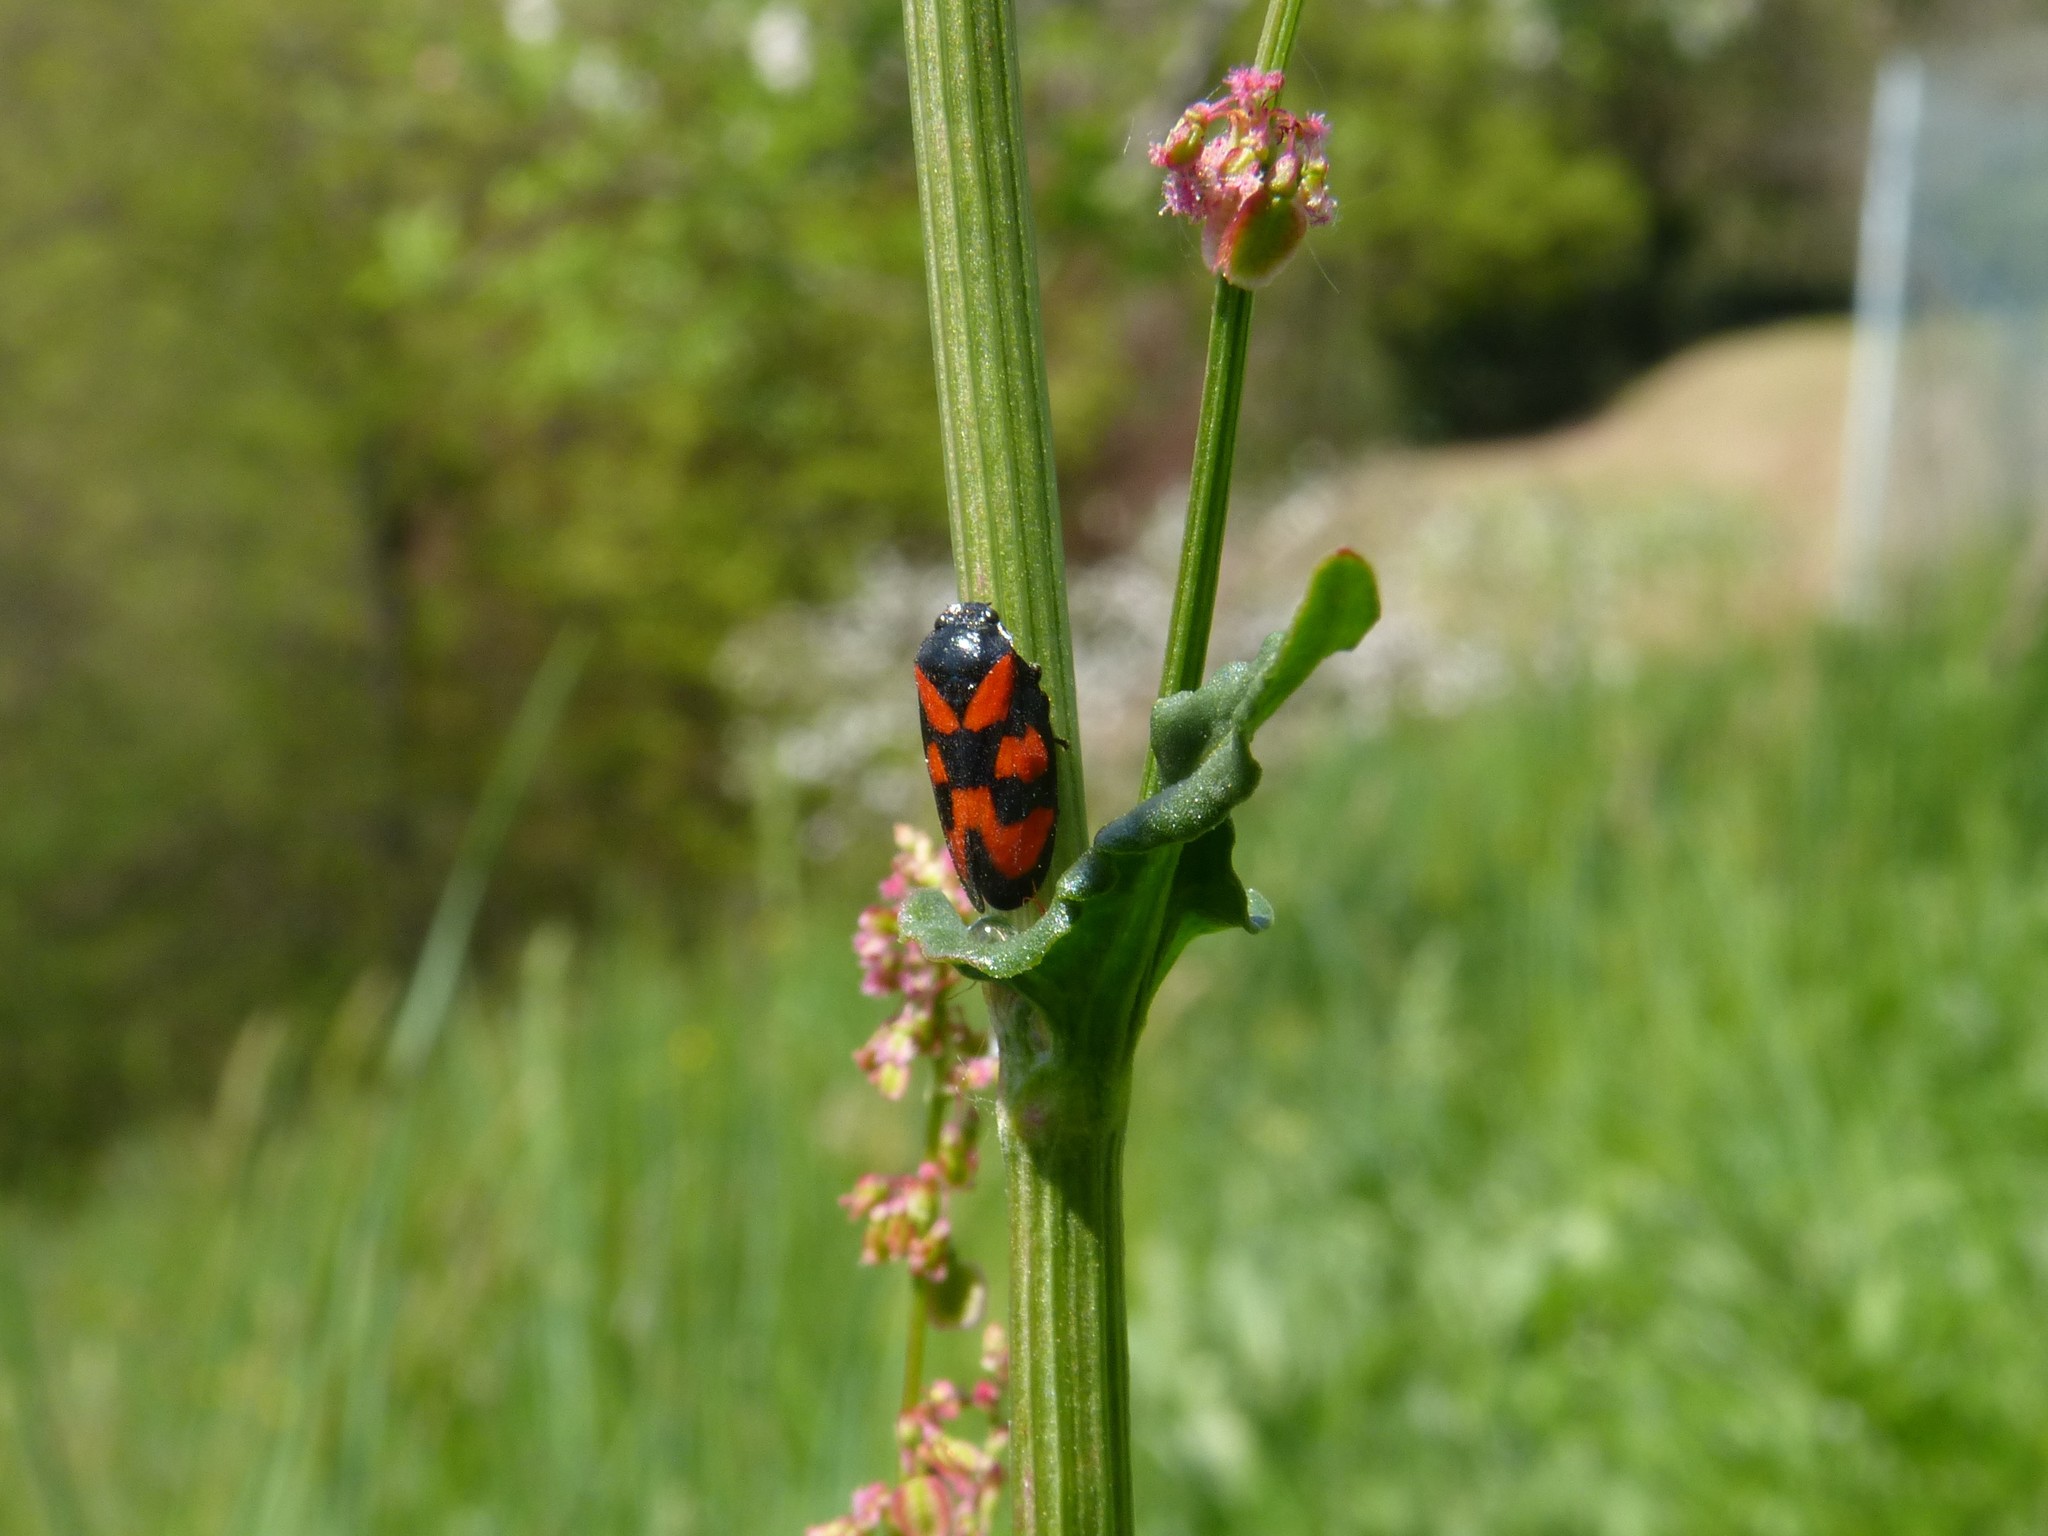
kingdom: Animalia
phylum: Arthropoda
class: Insecta
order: Hemiptera
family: Cercopidae
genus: Cercopis
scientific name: Cercopis vulnerata
